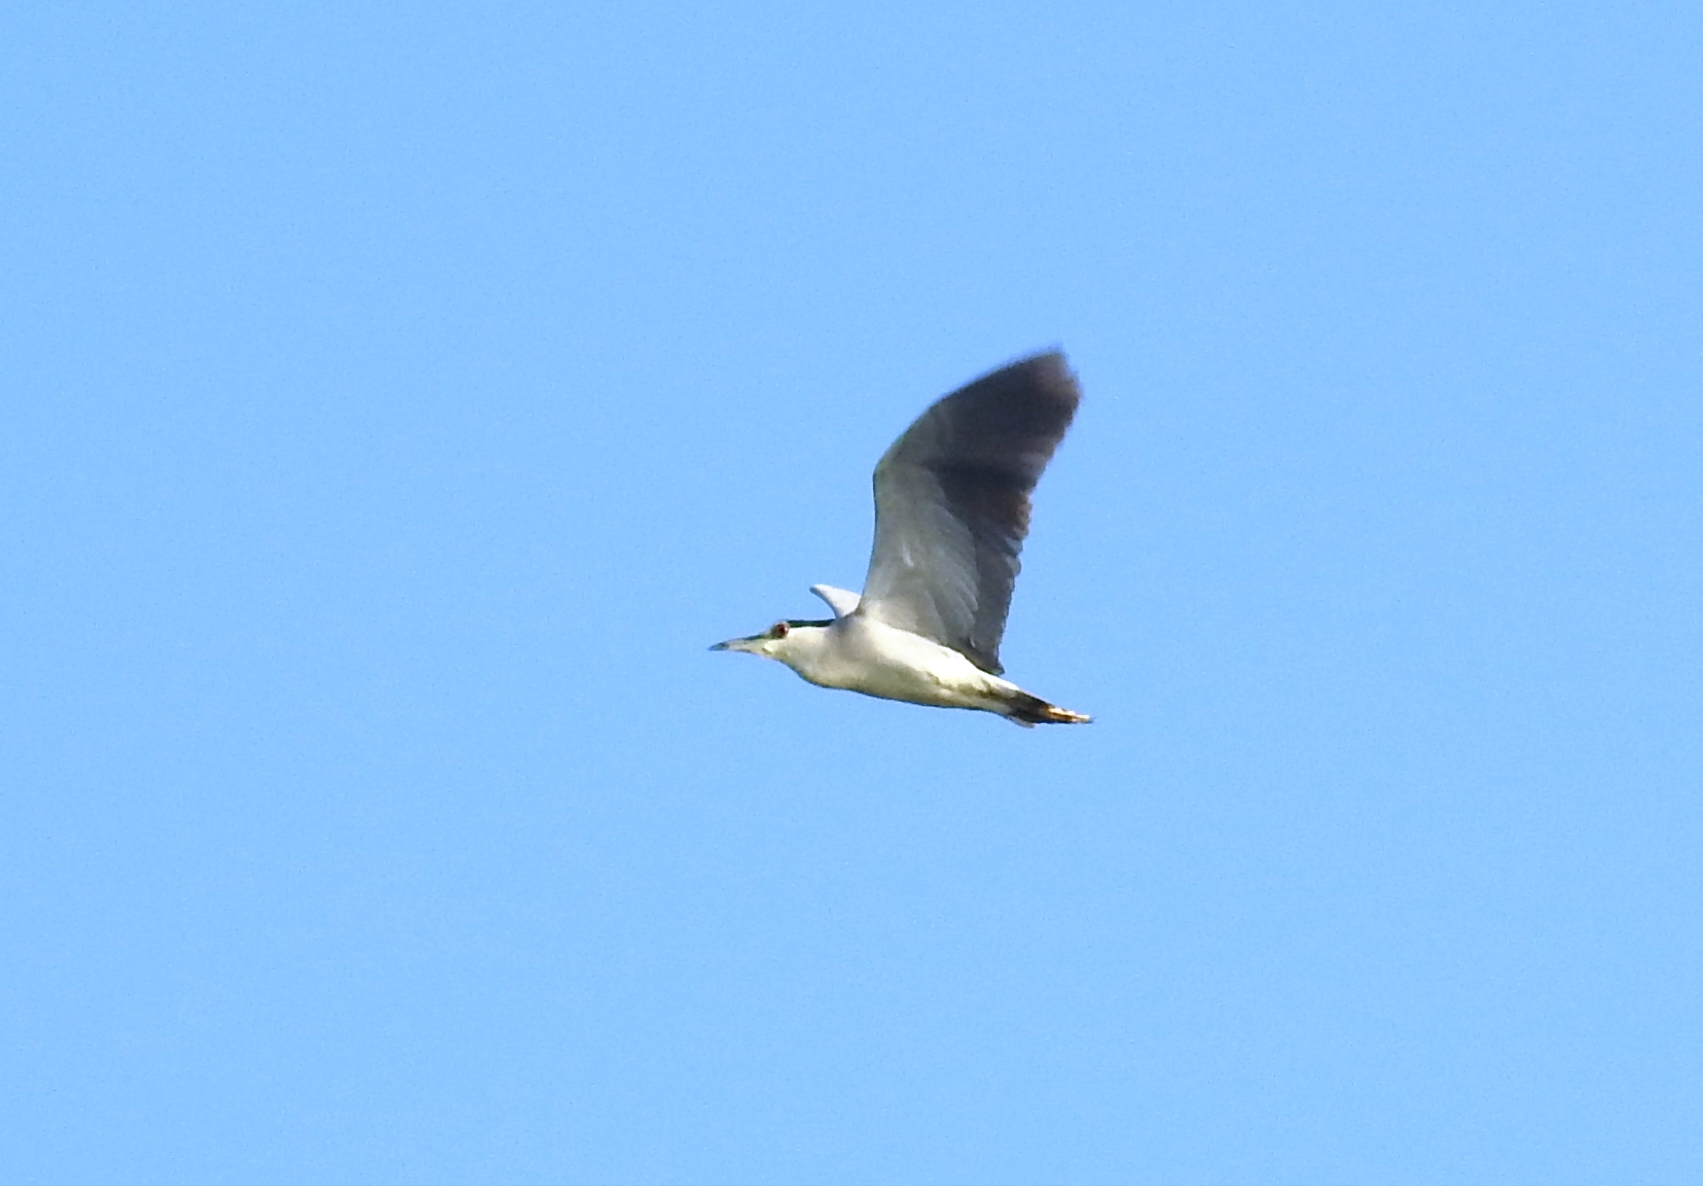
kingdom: Animalia
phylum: Chordata
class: Aves
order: Pelecaniformes
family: Ardeidae
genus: Nycticorax
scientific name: Nycticorax nycticorax
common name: Black-crowned night heron
